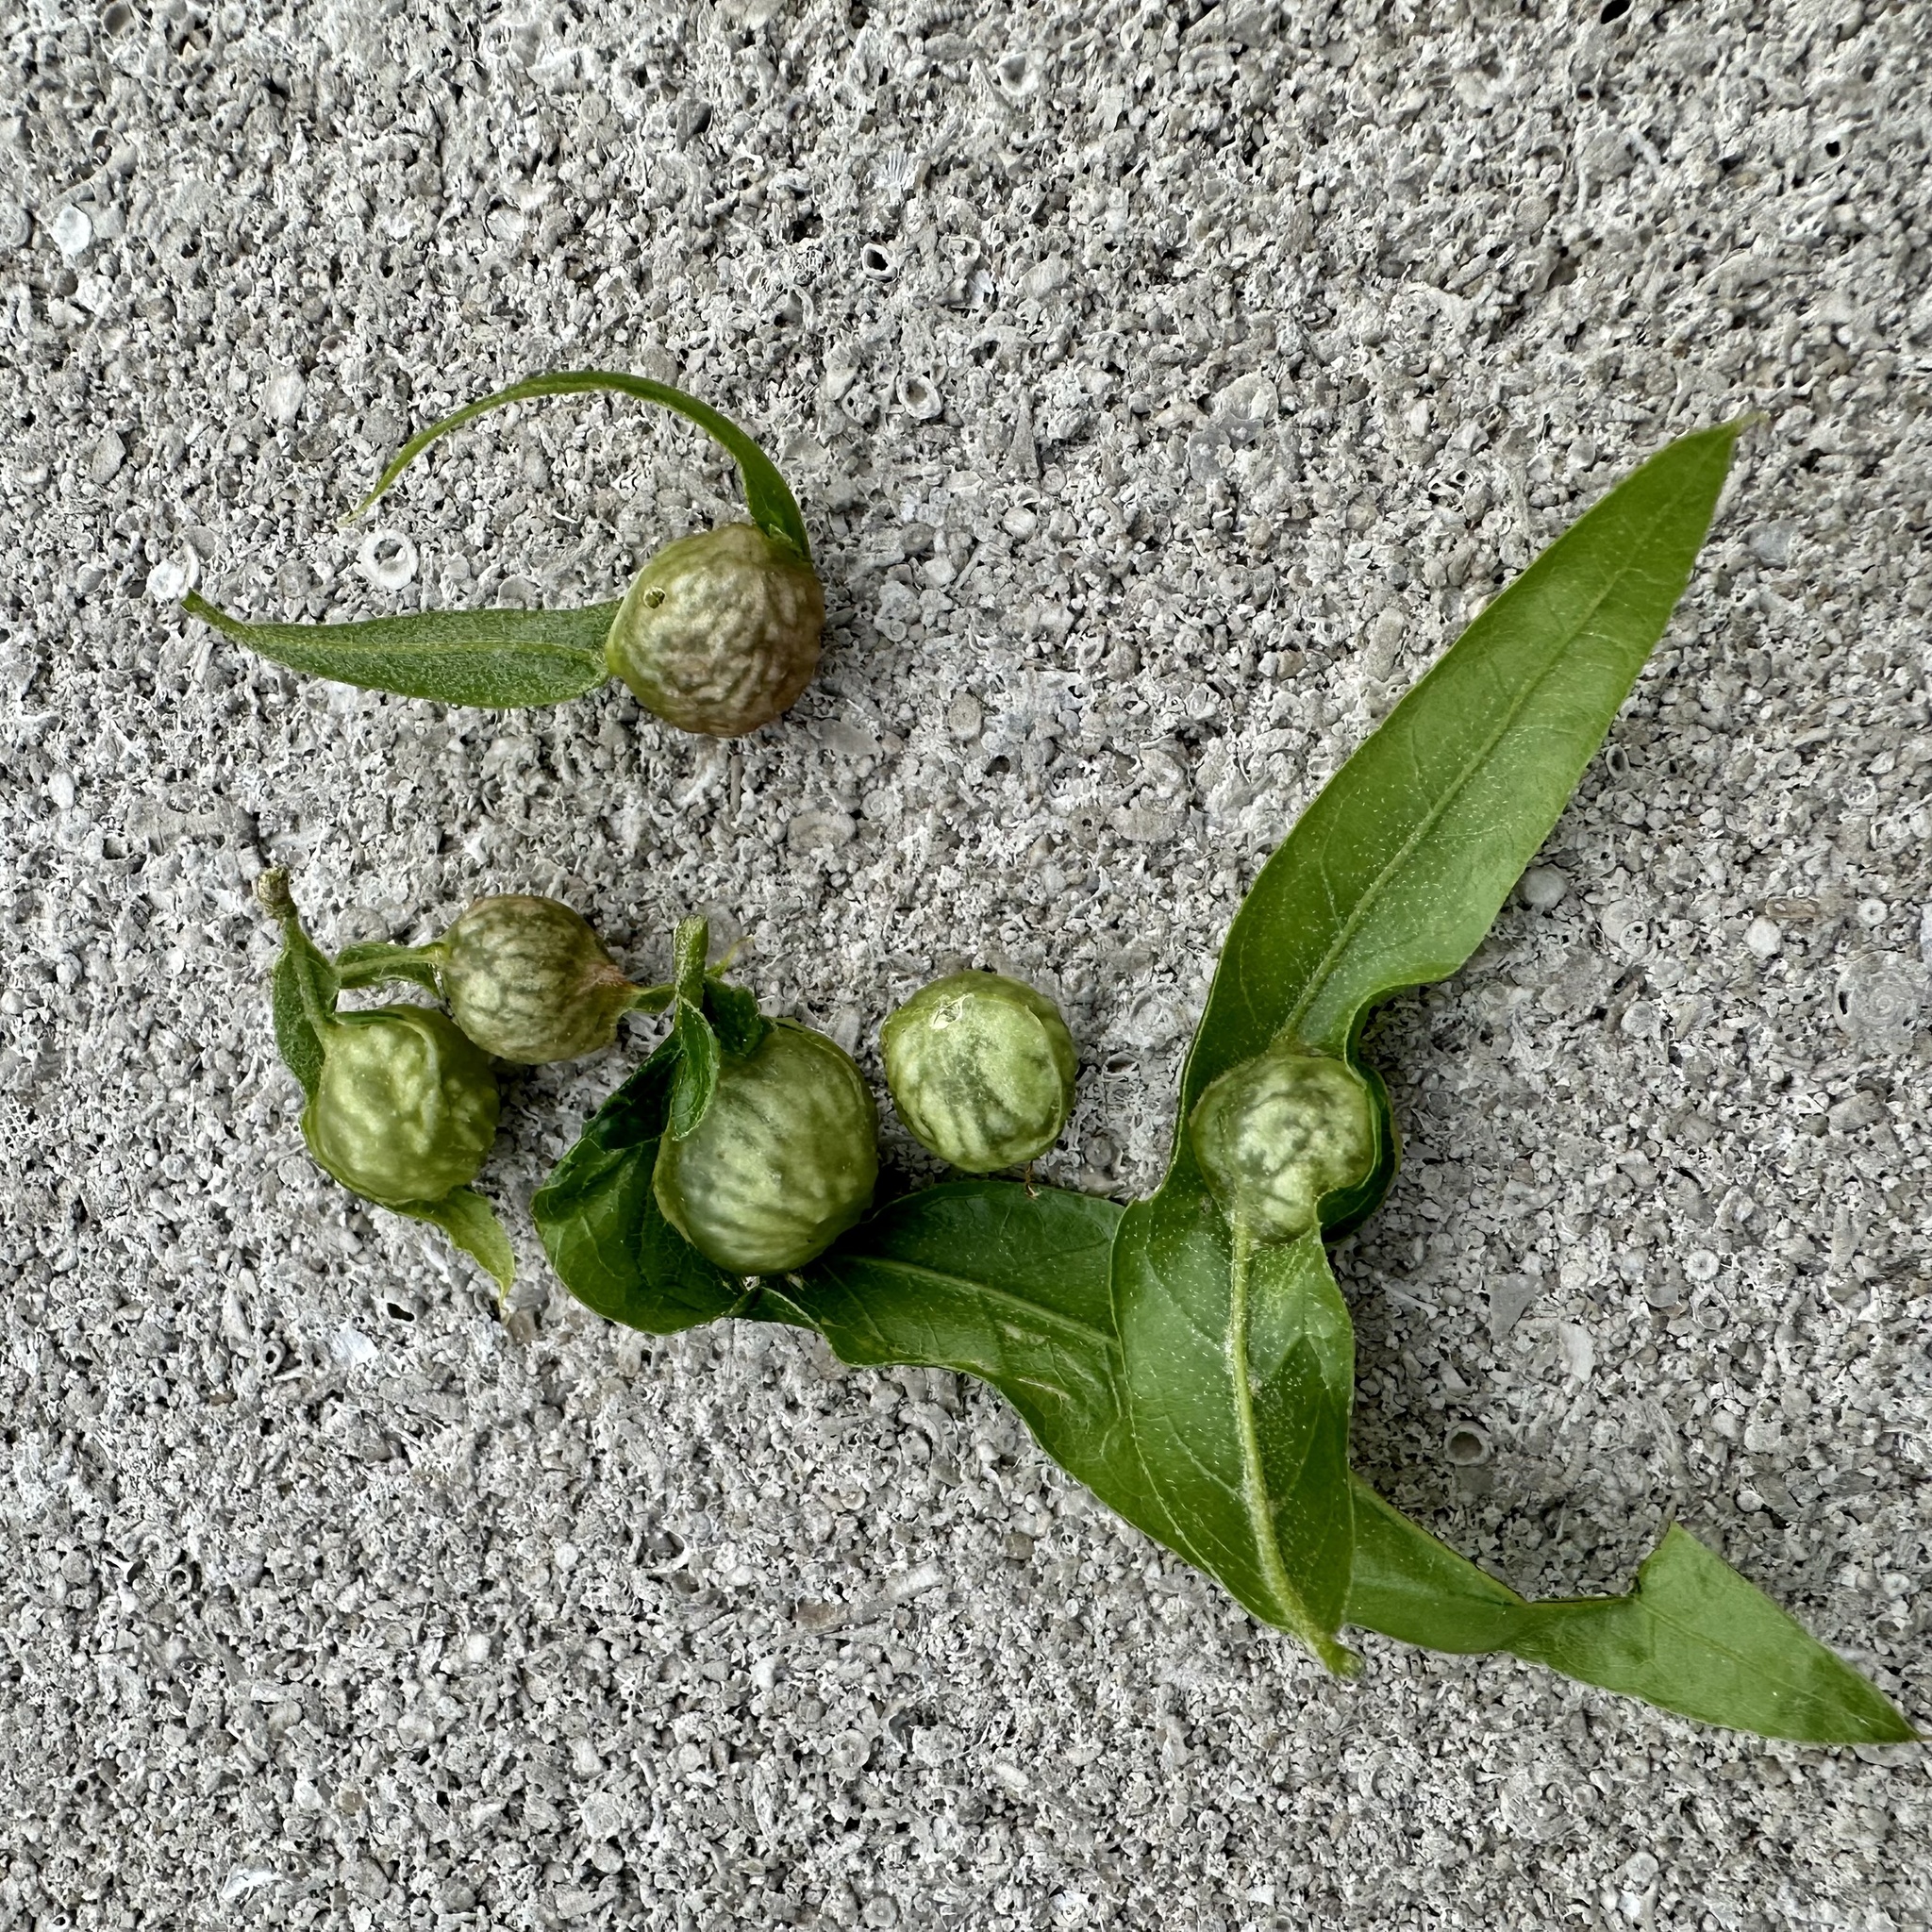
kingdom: Animalia
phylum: Arthropoda
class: Insecta
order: Hymenoptera
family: Cynipidae
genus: Dryocosmus
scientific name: Dryocosmus
